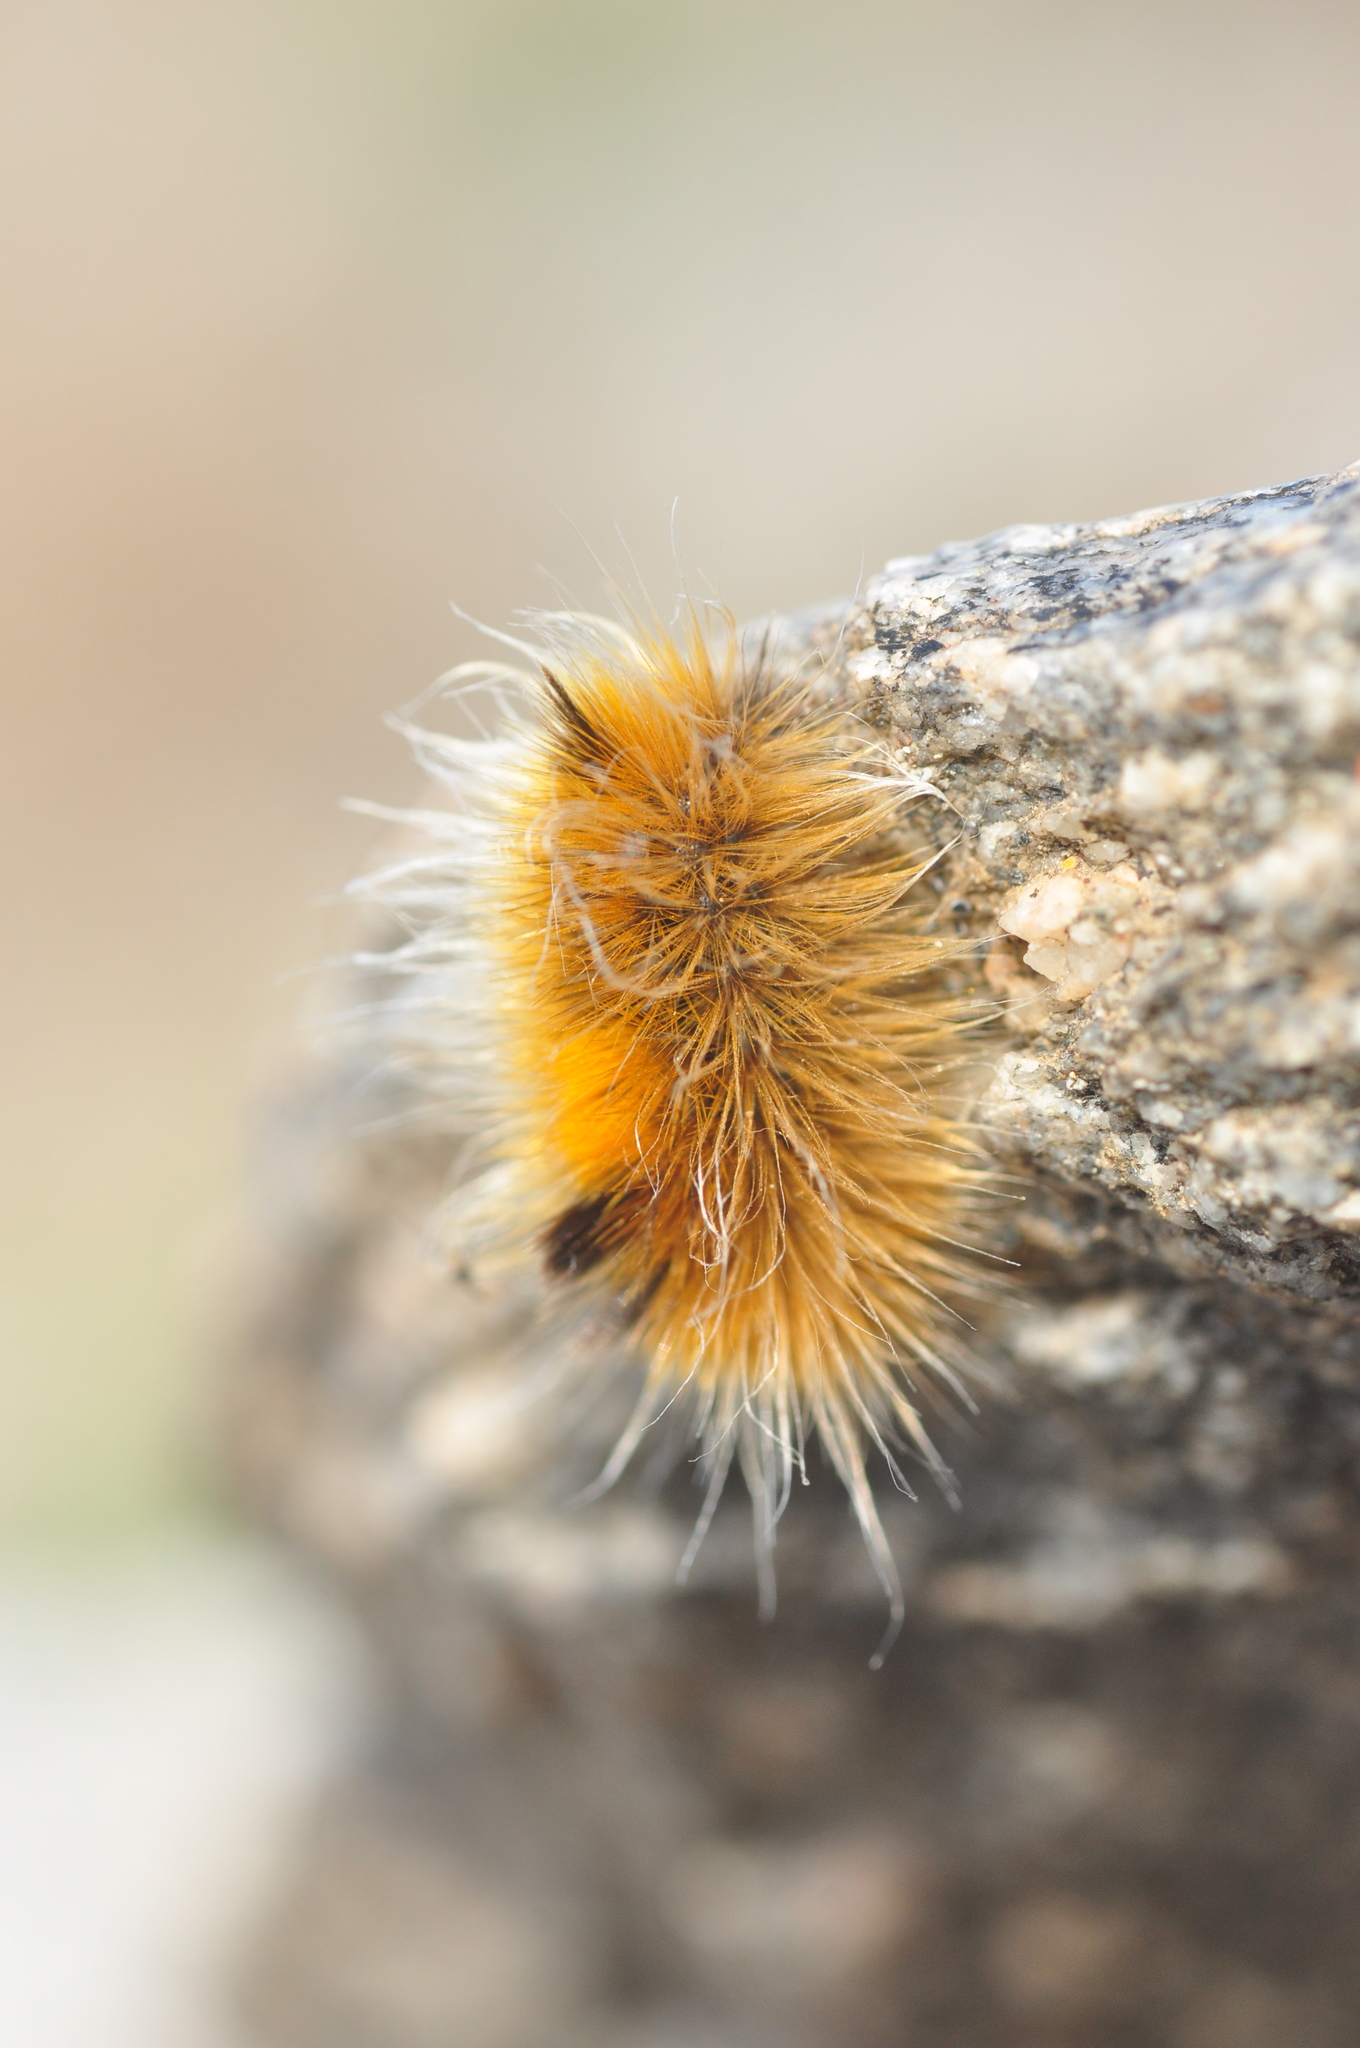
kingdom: Animalia
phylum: Arthropoda
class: Insecta
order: Lepidoptera
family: Erebidae
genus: Gynaephora
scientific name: Gynaephora groenlandica
